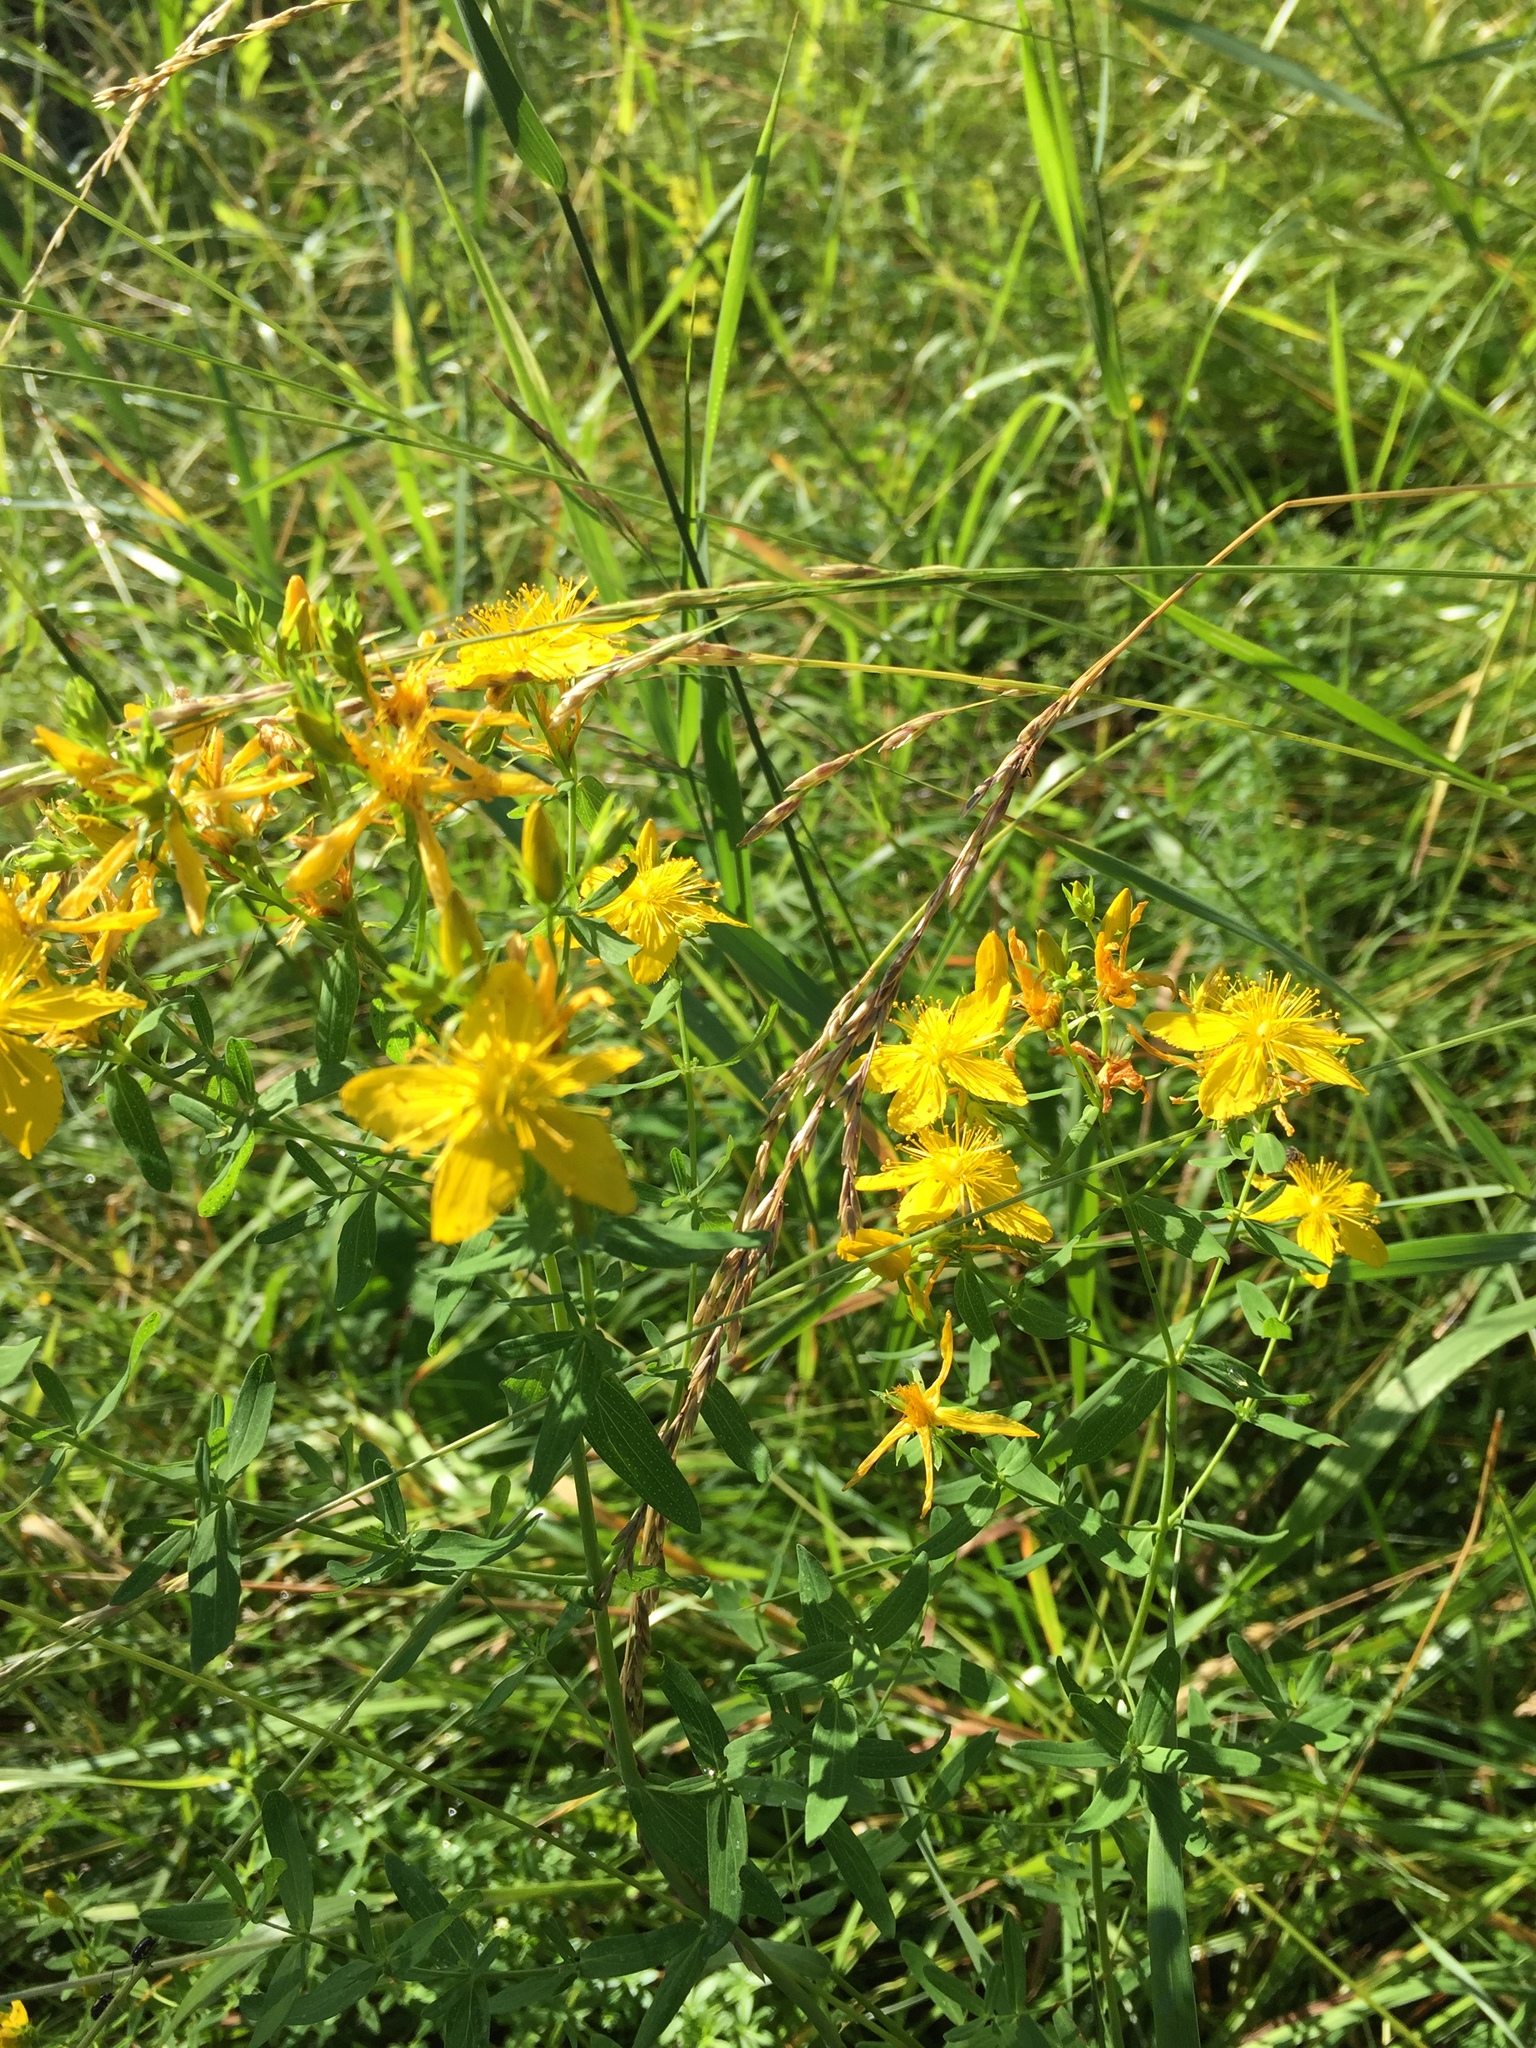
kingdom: Plantae
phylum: Tracheophyta
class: Magnoliopsida
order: Malpighiales
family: Hypericaceae
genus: Hypericum
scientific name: Hypericum perforatum
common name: Common st. johnswort
